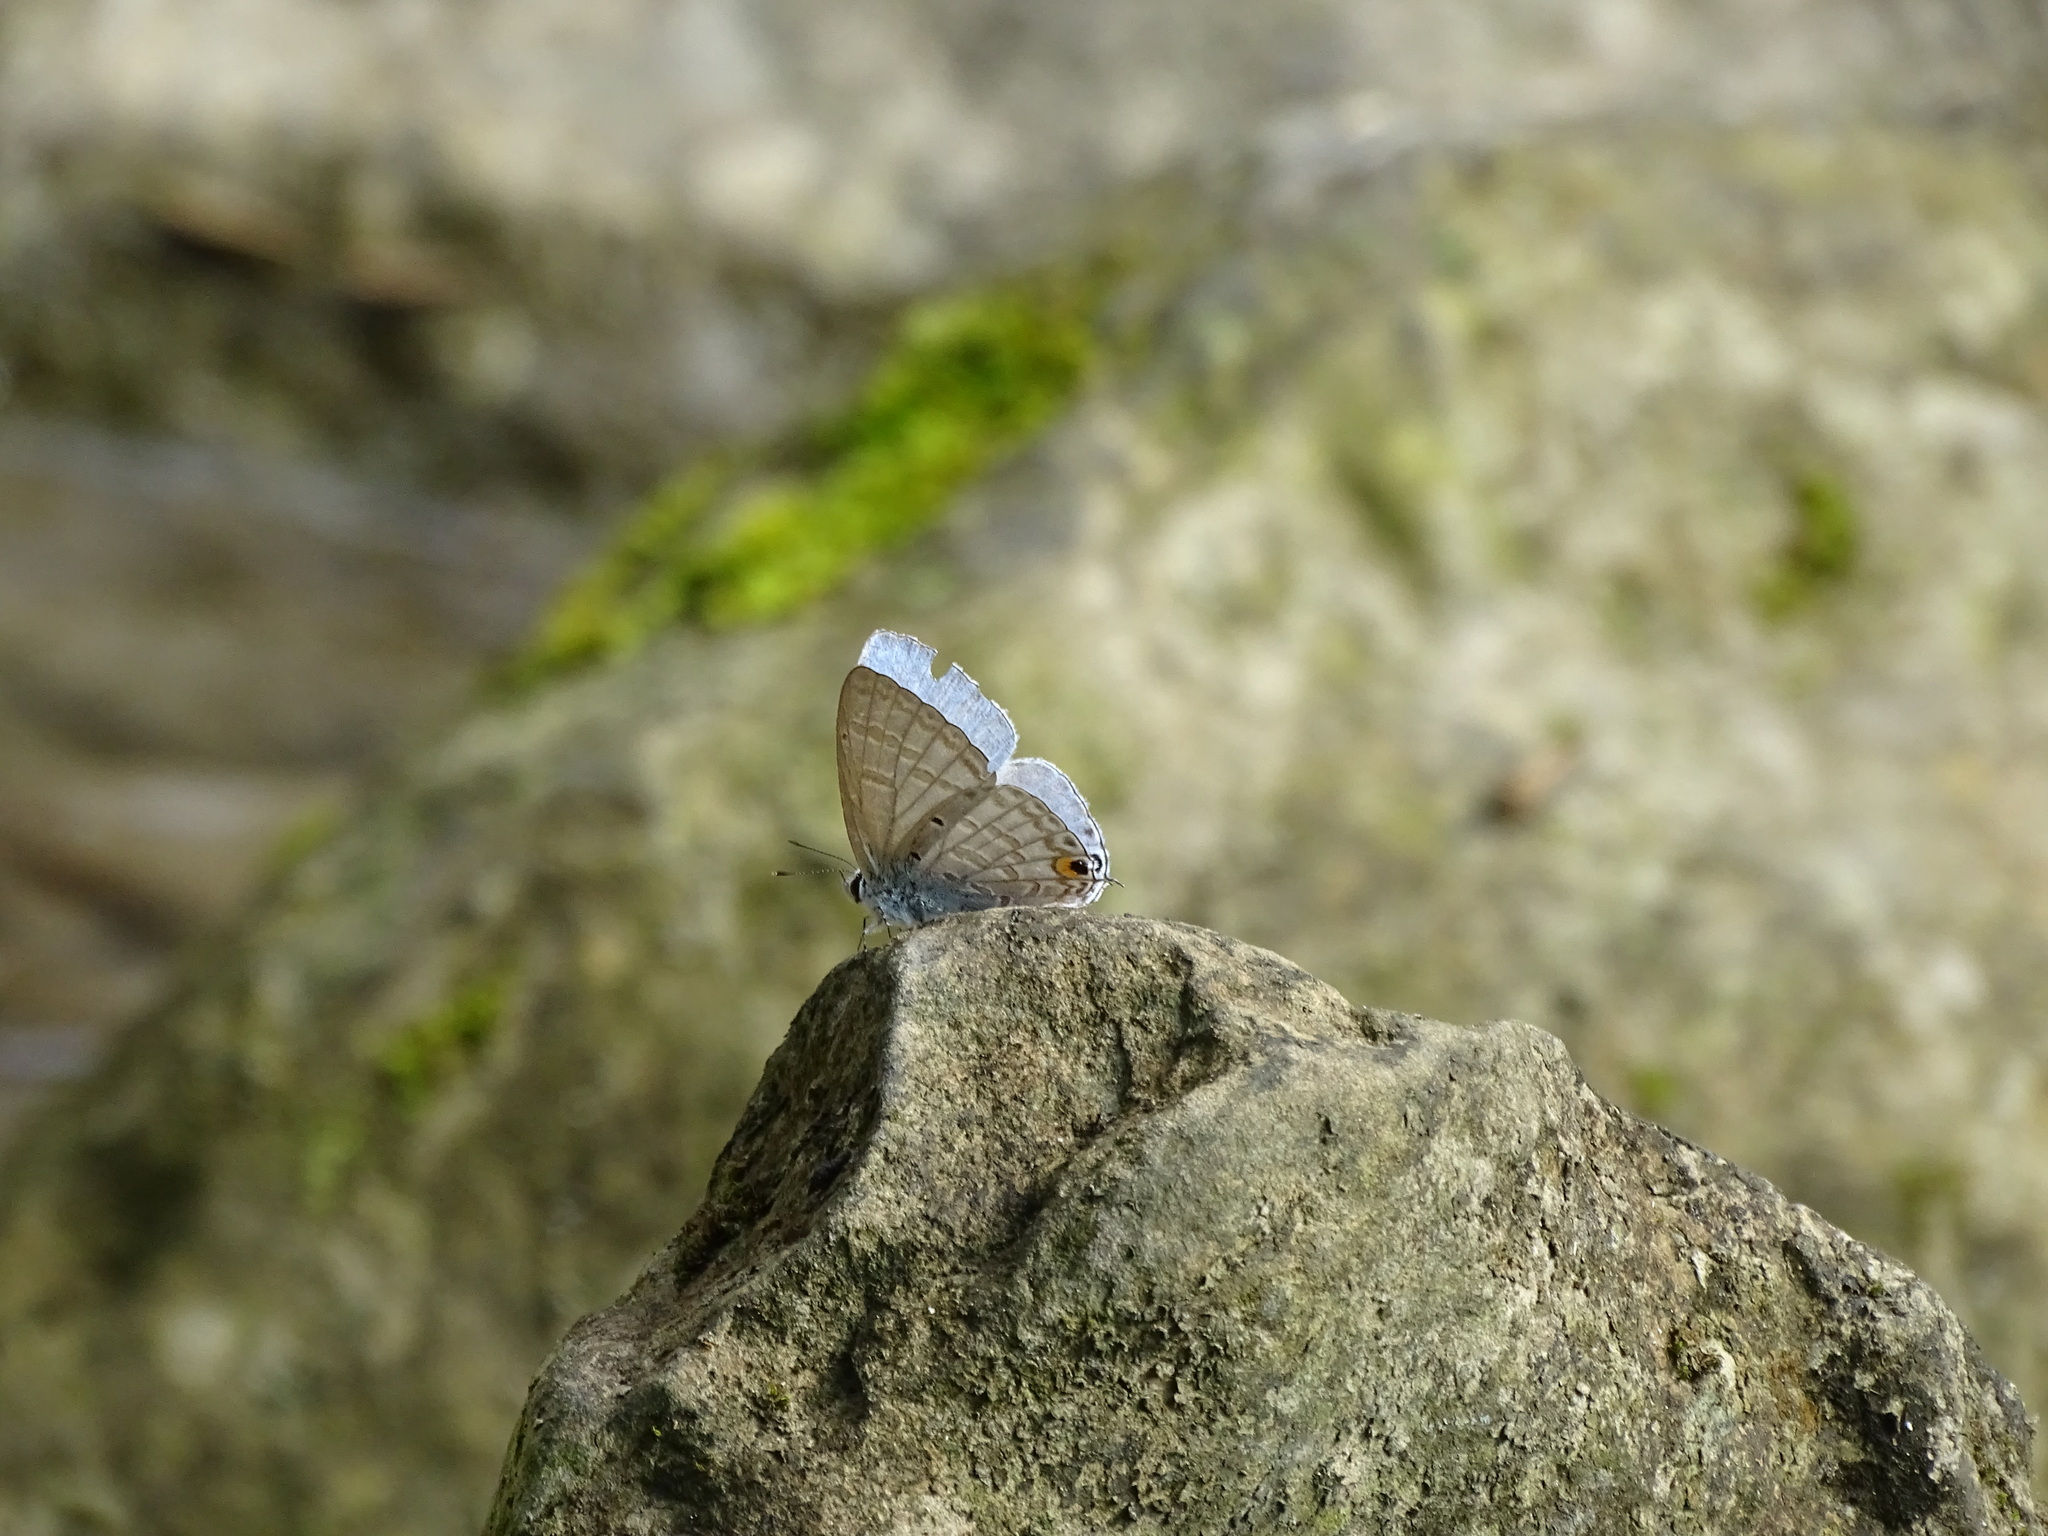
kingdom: Animalia
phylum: Arthropoda
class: Insecta
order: Lepidoptera
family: Lycaenidae
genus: Catochrysops
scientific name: Catochrysops panormus
